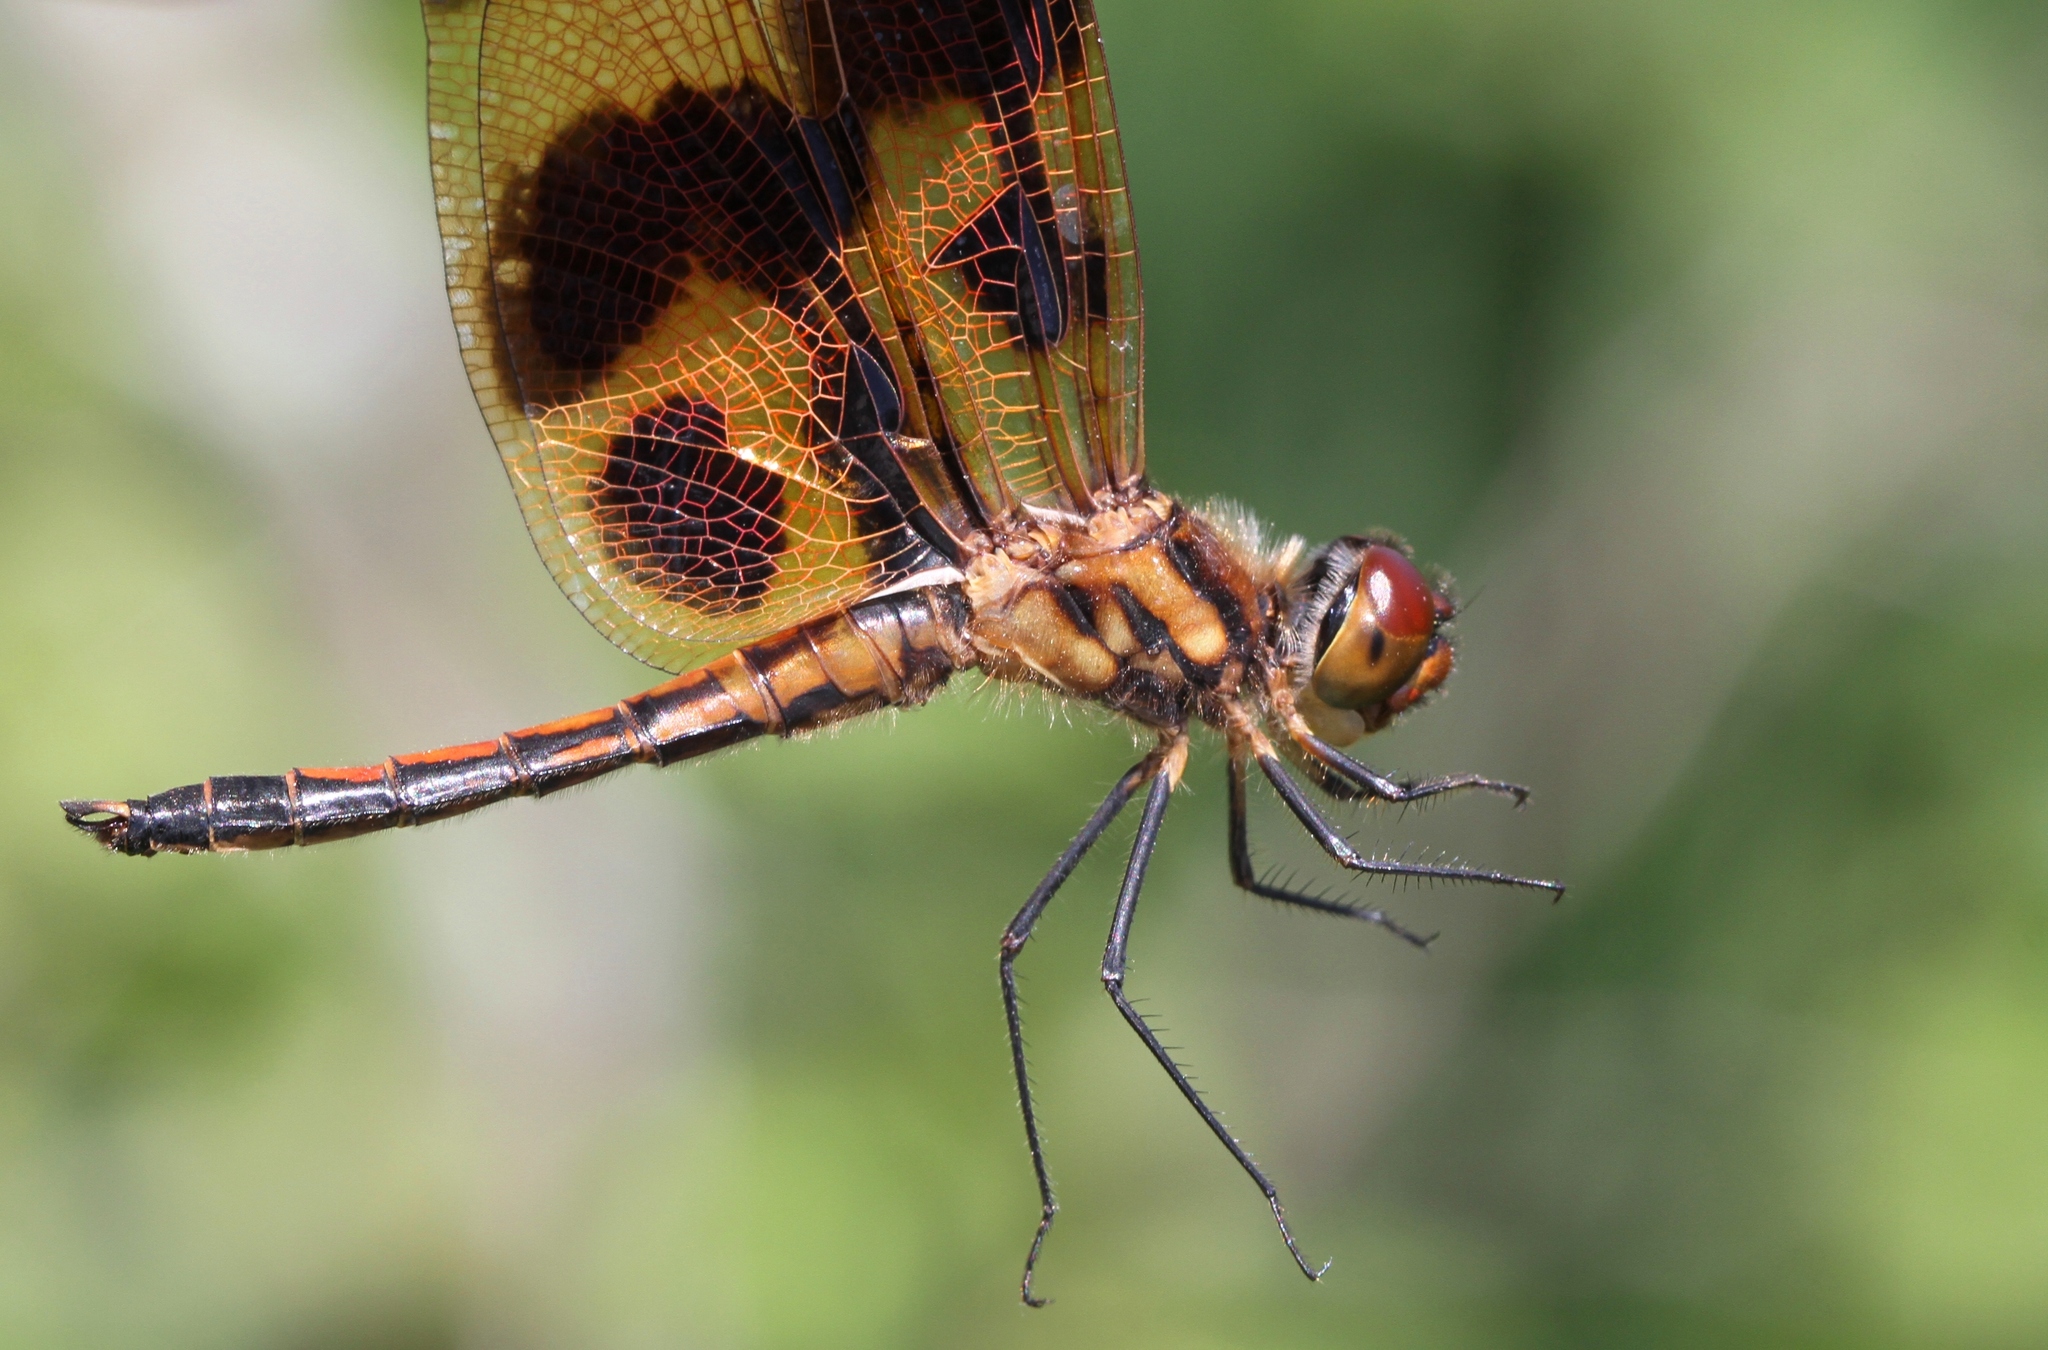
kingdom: Animalia
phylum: Arthropoda
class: Insecta
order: Odonata
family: Libellulidae
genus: Celithemis
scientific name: Celithemis eponina
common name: Halloween pennant
